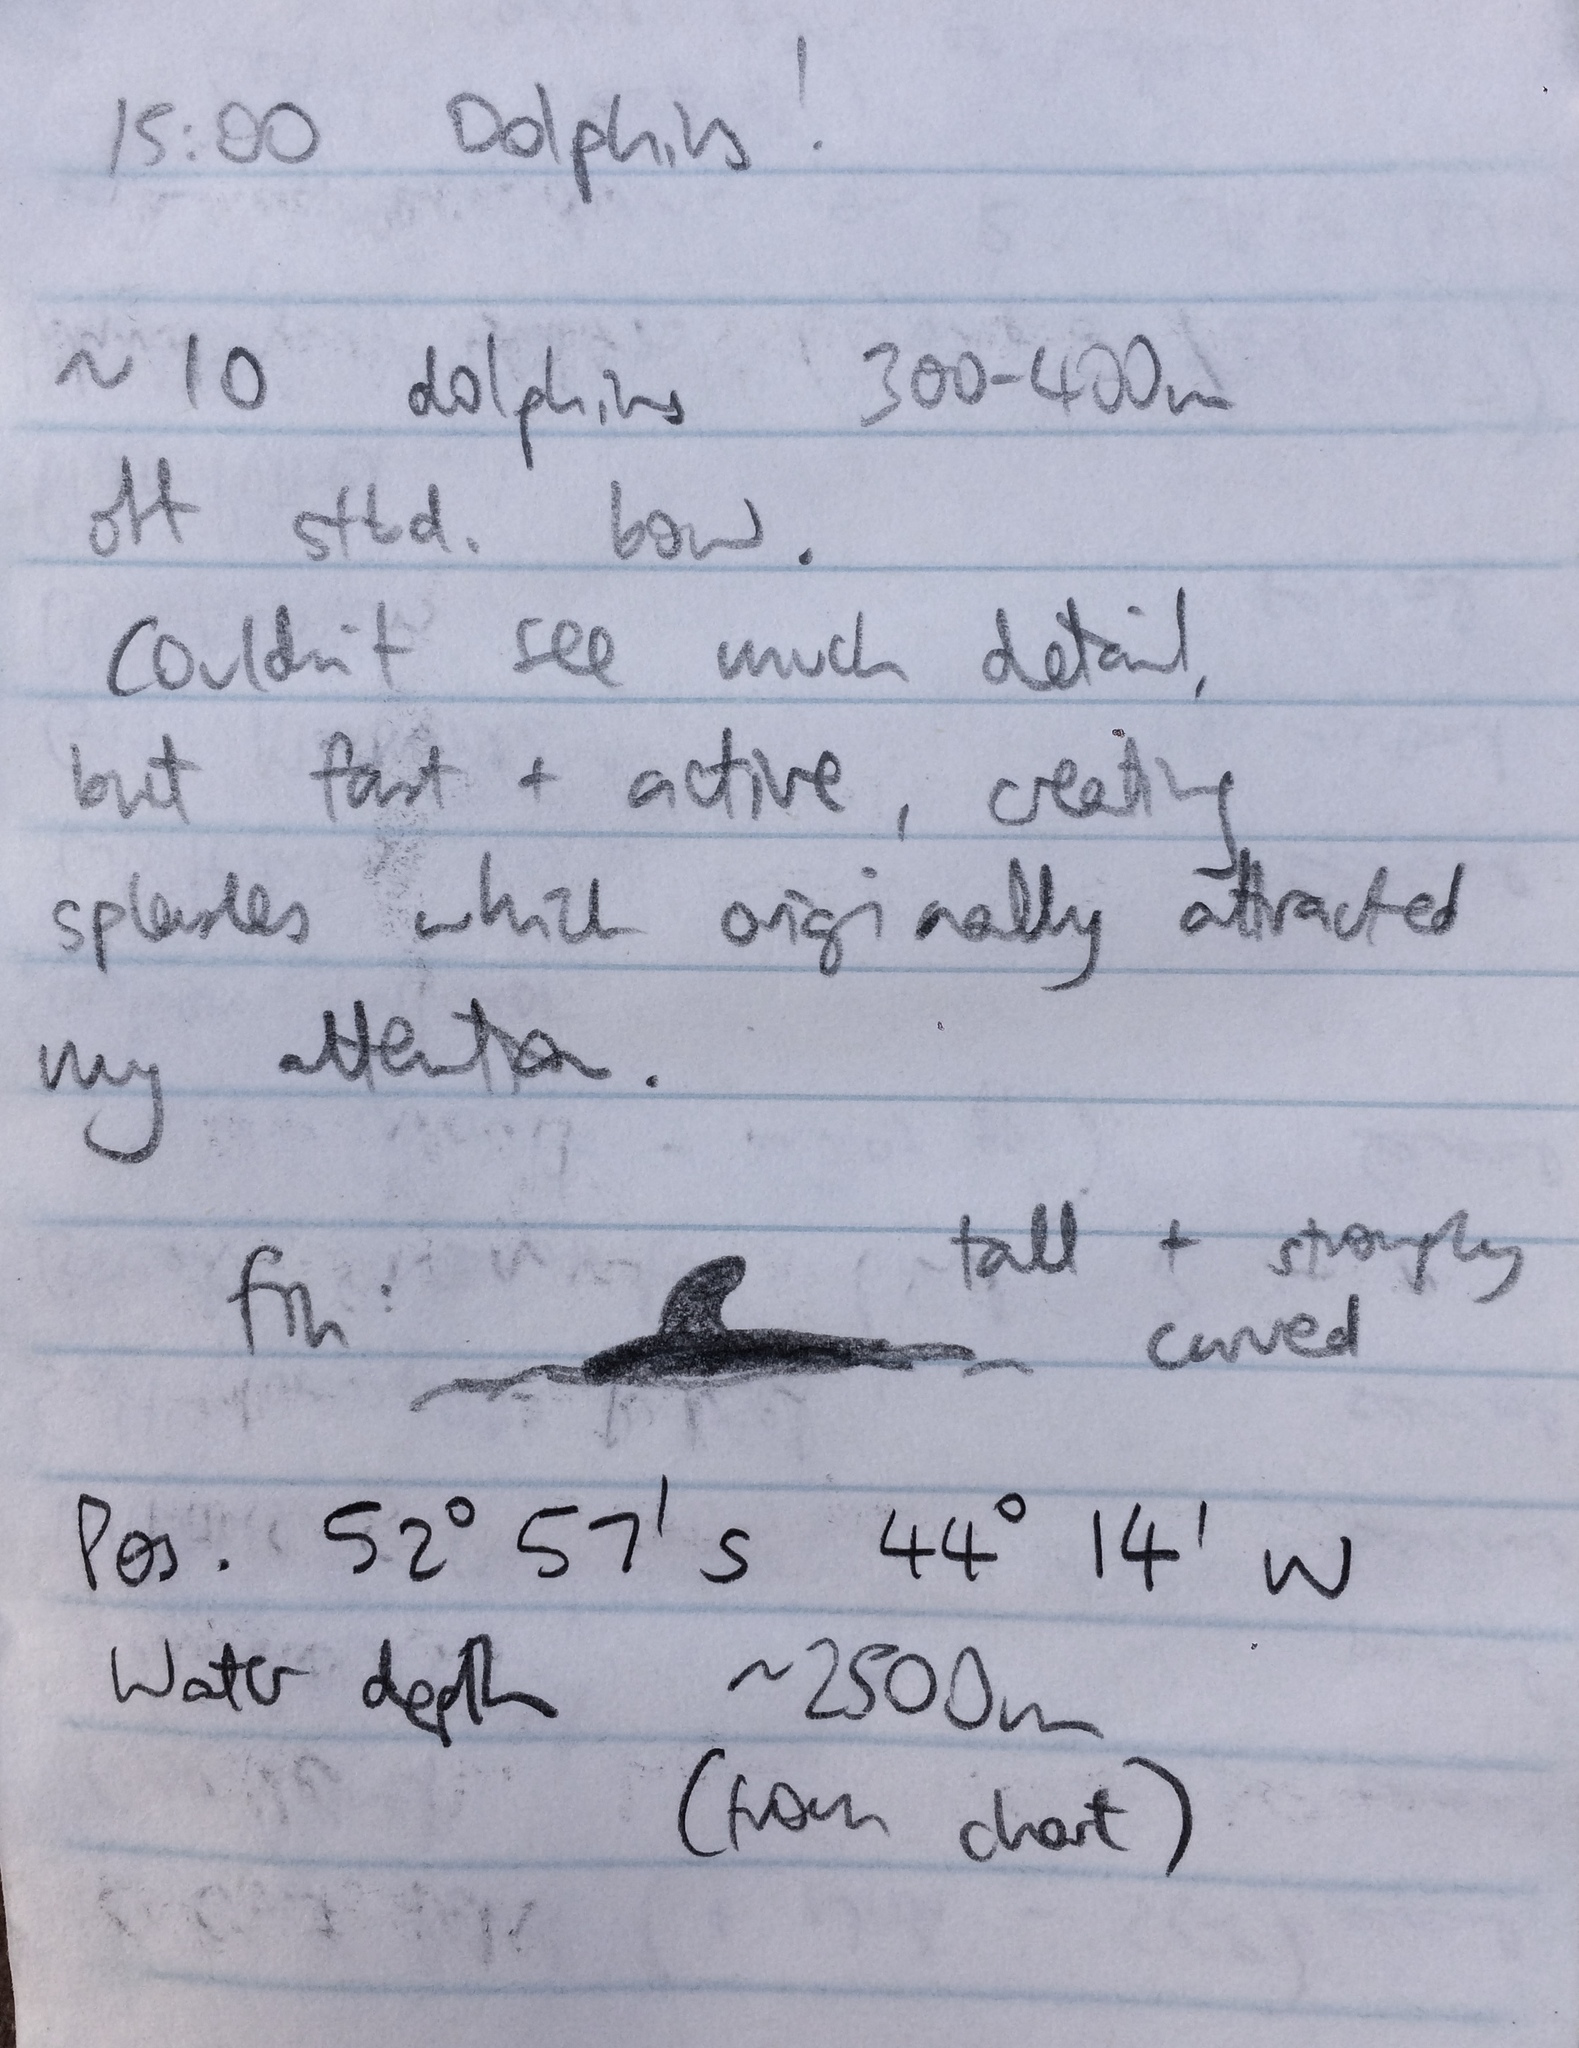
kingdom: Animalia
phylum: Chordata
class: Mammalia
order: Cetacea
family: Delphinidae
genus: Lagenorhynchus
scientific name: Lagenorhynchus cruciger
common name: Hourglass dolphin
